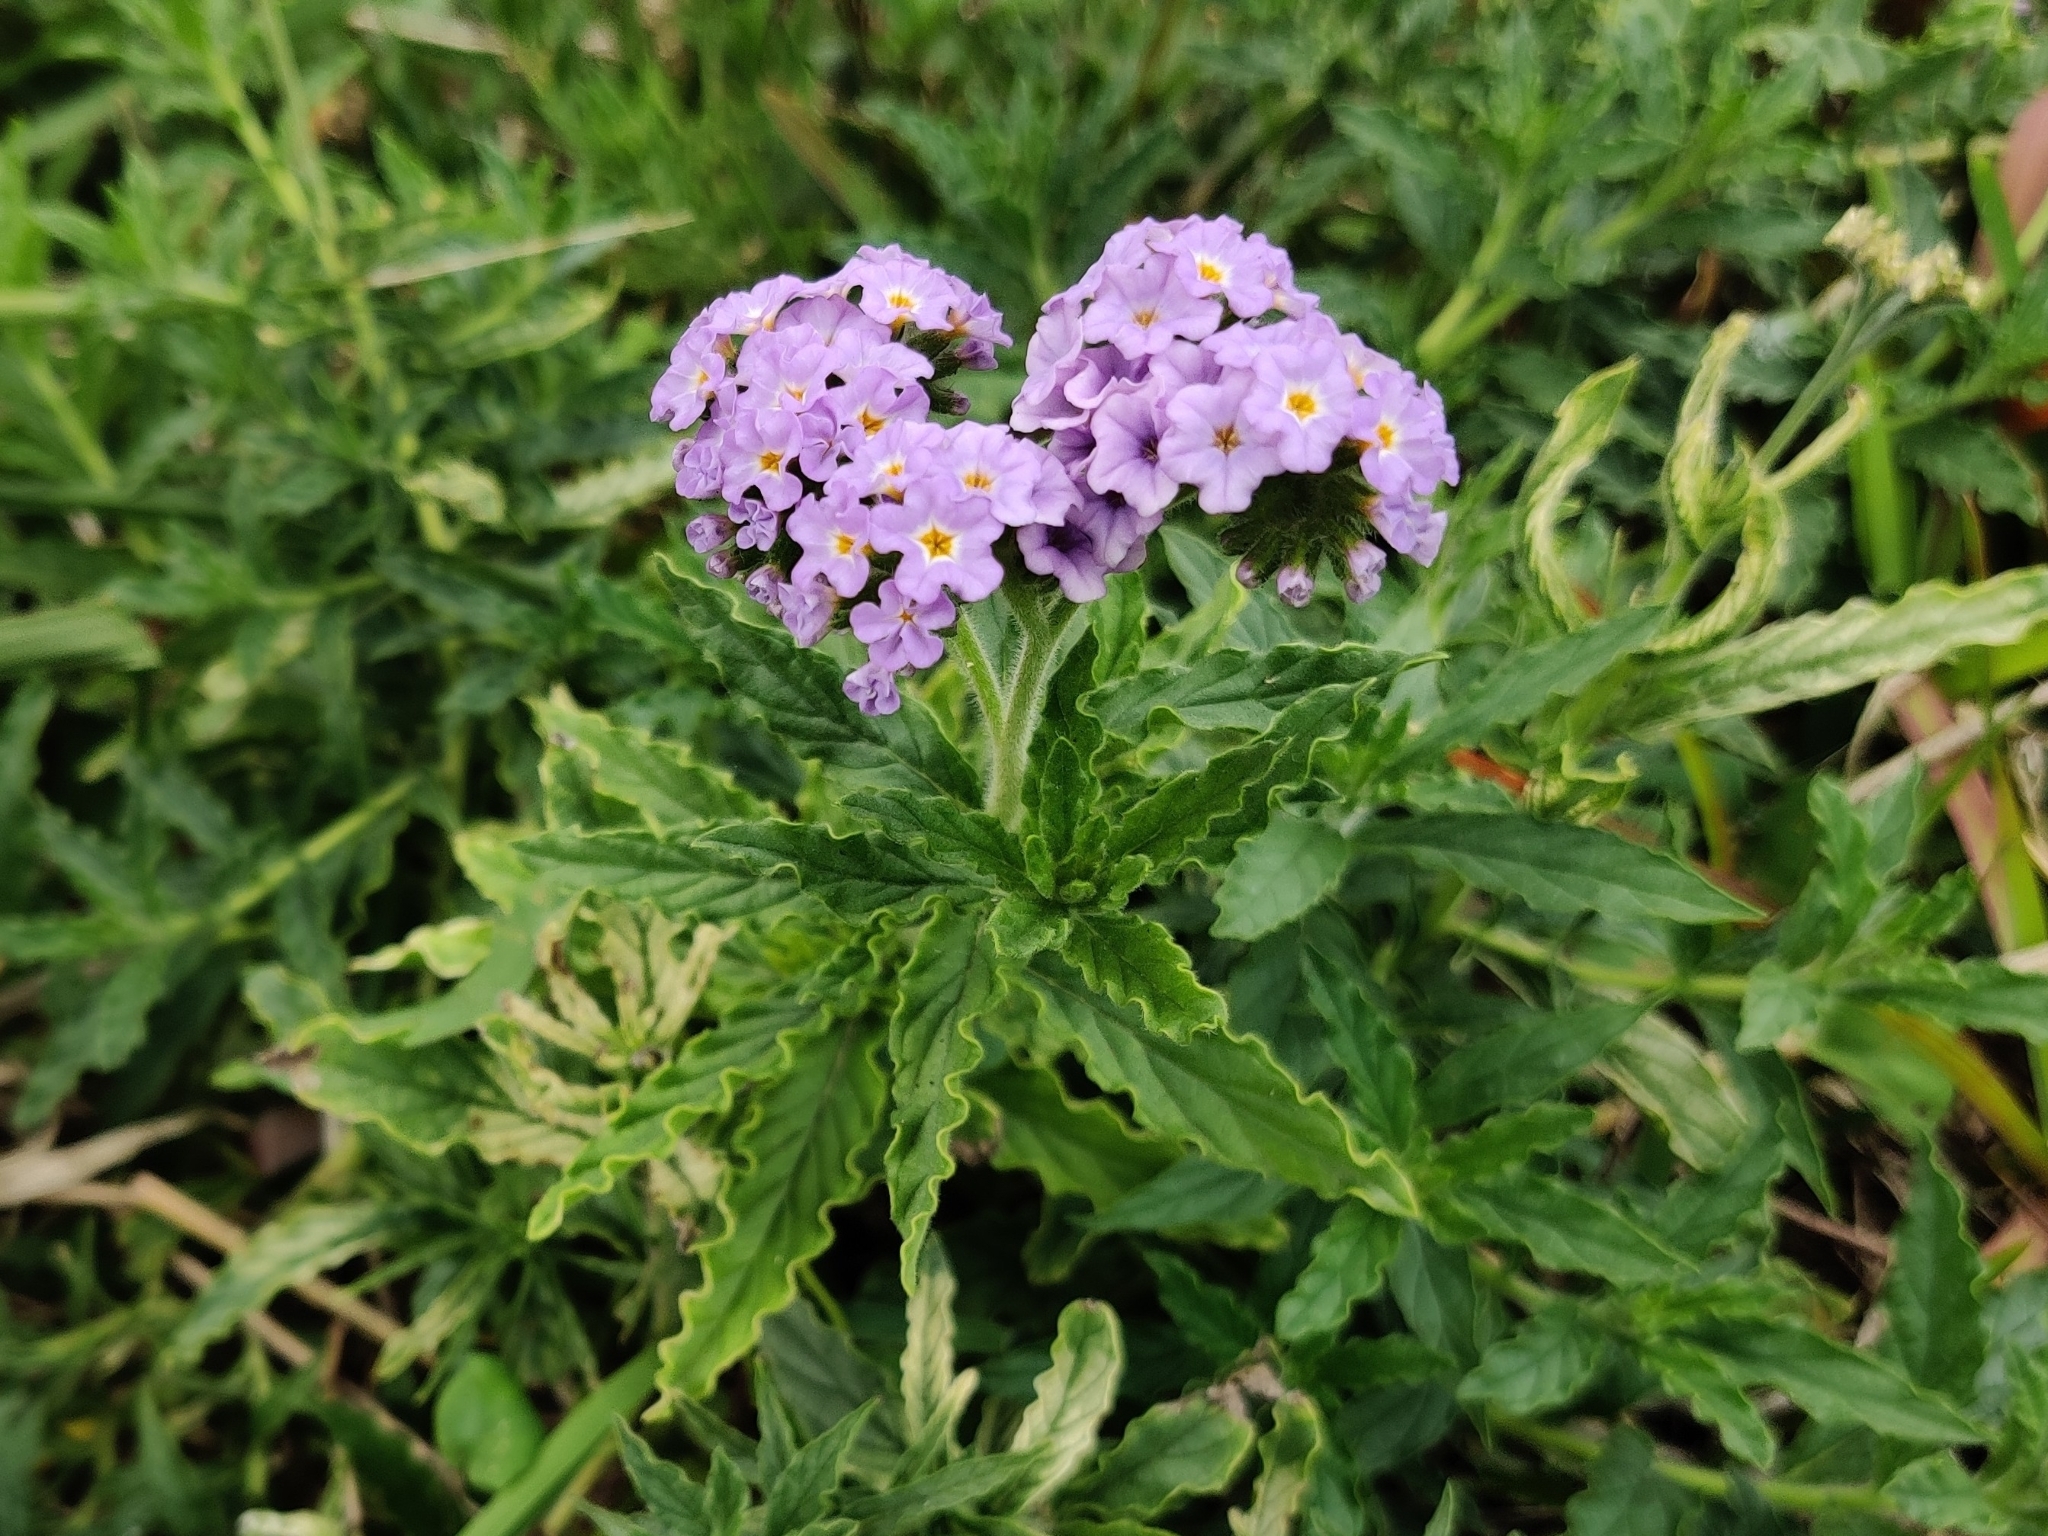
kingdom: Plantae
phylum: Tracheophyta
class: Magnoliopsida
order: Boraginales
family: Heliotropiaceae
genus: Heliotropium
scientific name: Heliotropium amplexicaule
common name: Clasping heliotrope
